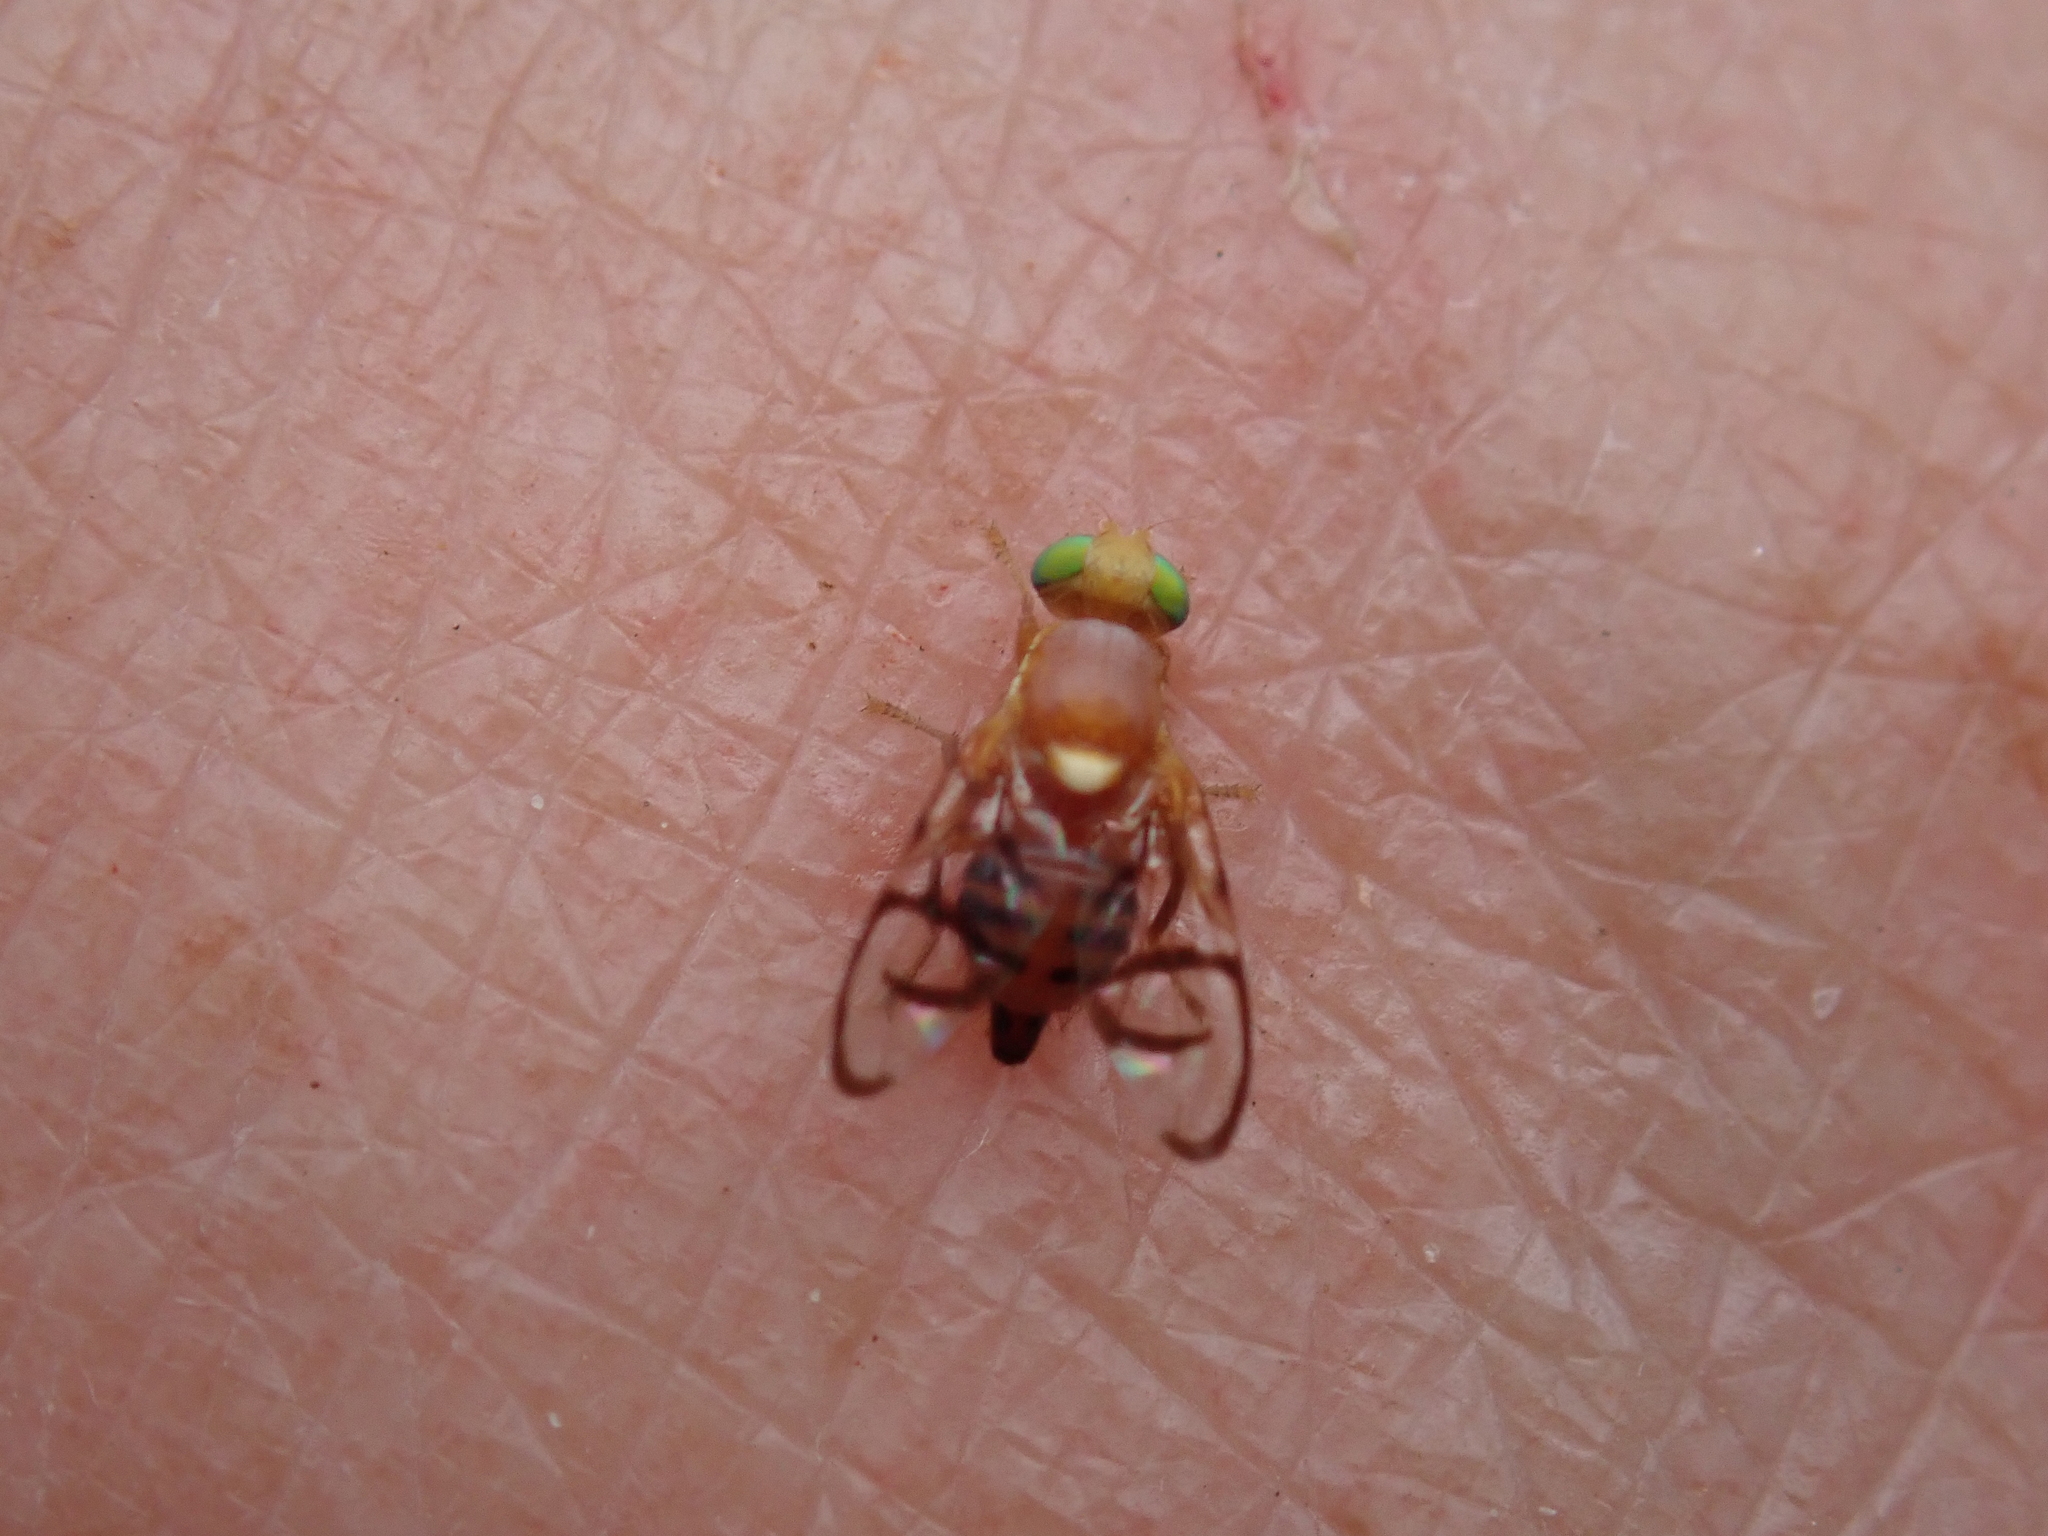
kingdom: Animalia
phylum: Arthropoda
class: Insecta
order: Diptera
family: Tephritidae
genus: Paraterellia
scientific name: Paraterellia superba
